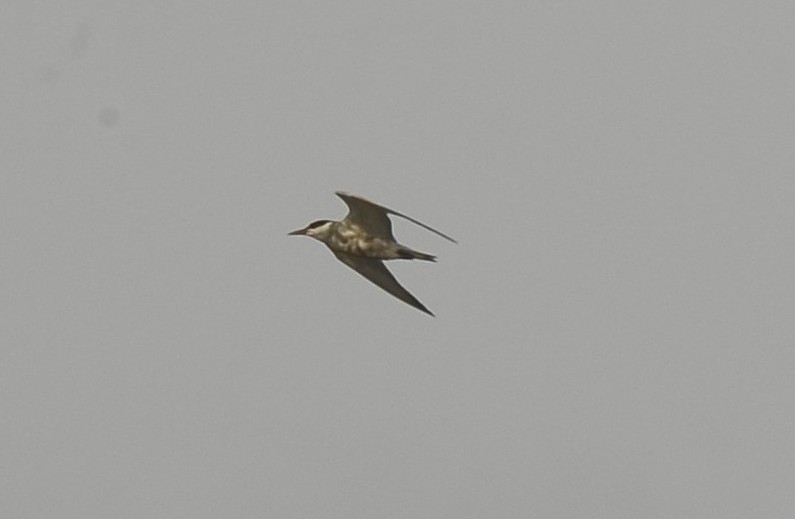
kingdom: Animalia
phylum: Chordata
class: Aves
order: Charadriiformes
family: Laridae
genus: Chlidonias
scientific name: Chlidonias hybrida
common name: Whiskered tern
